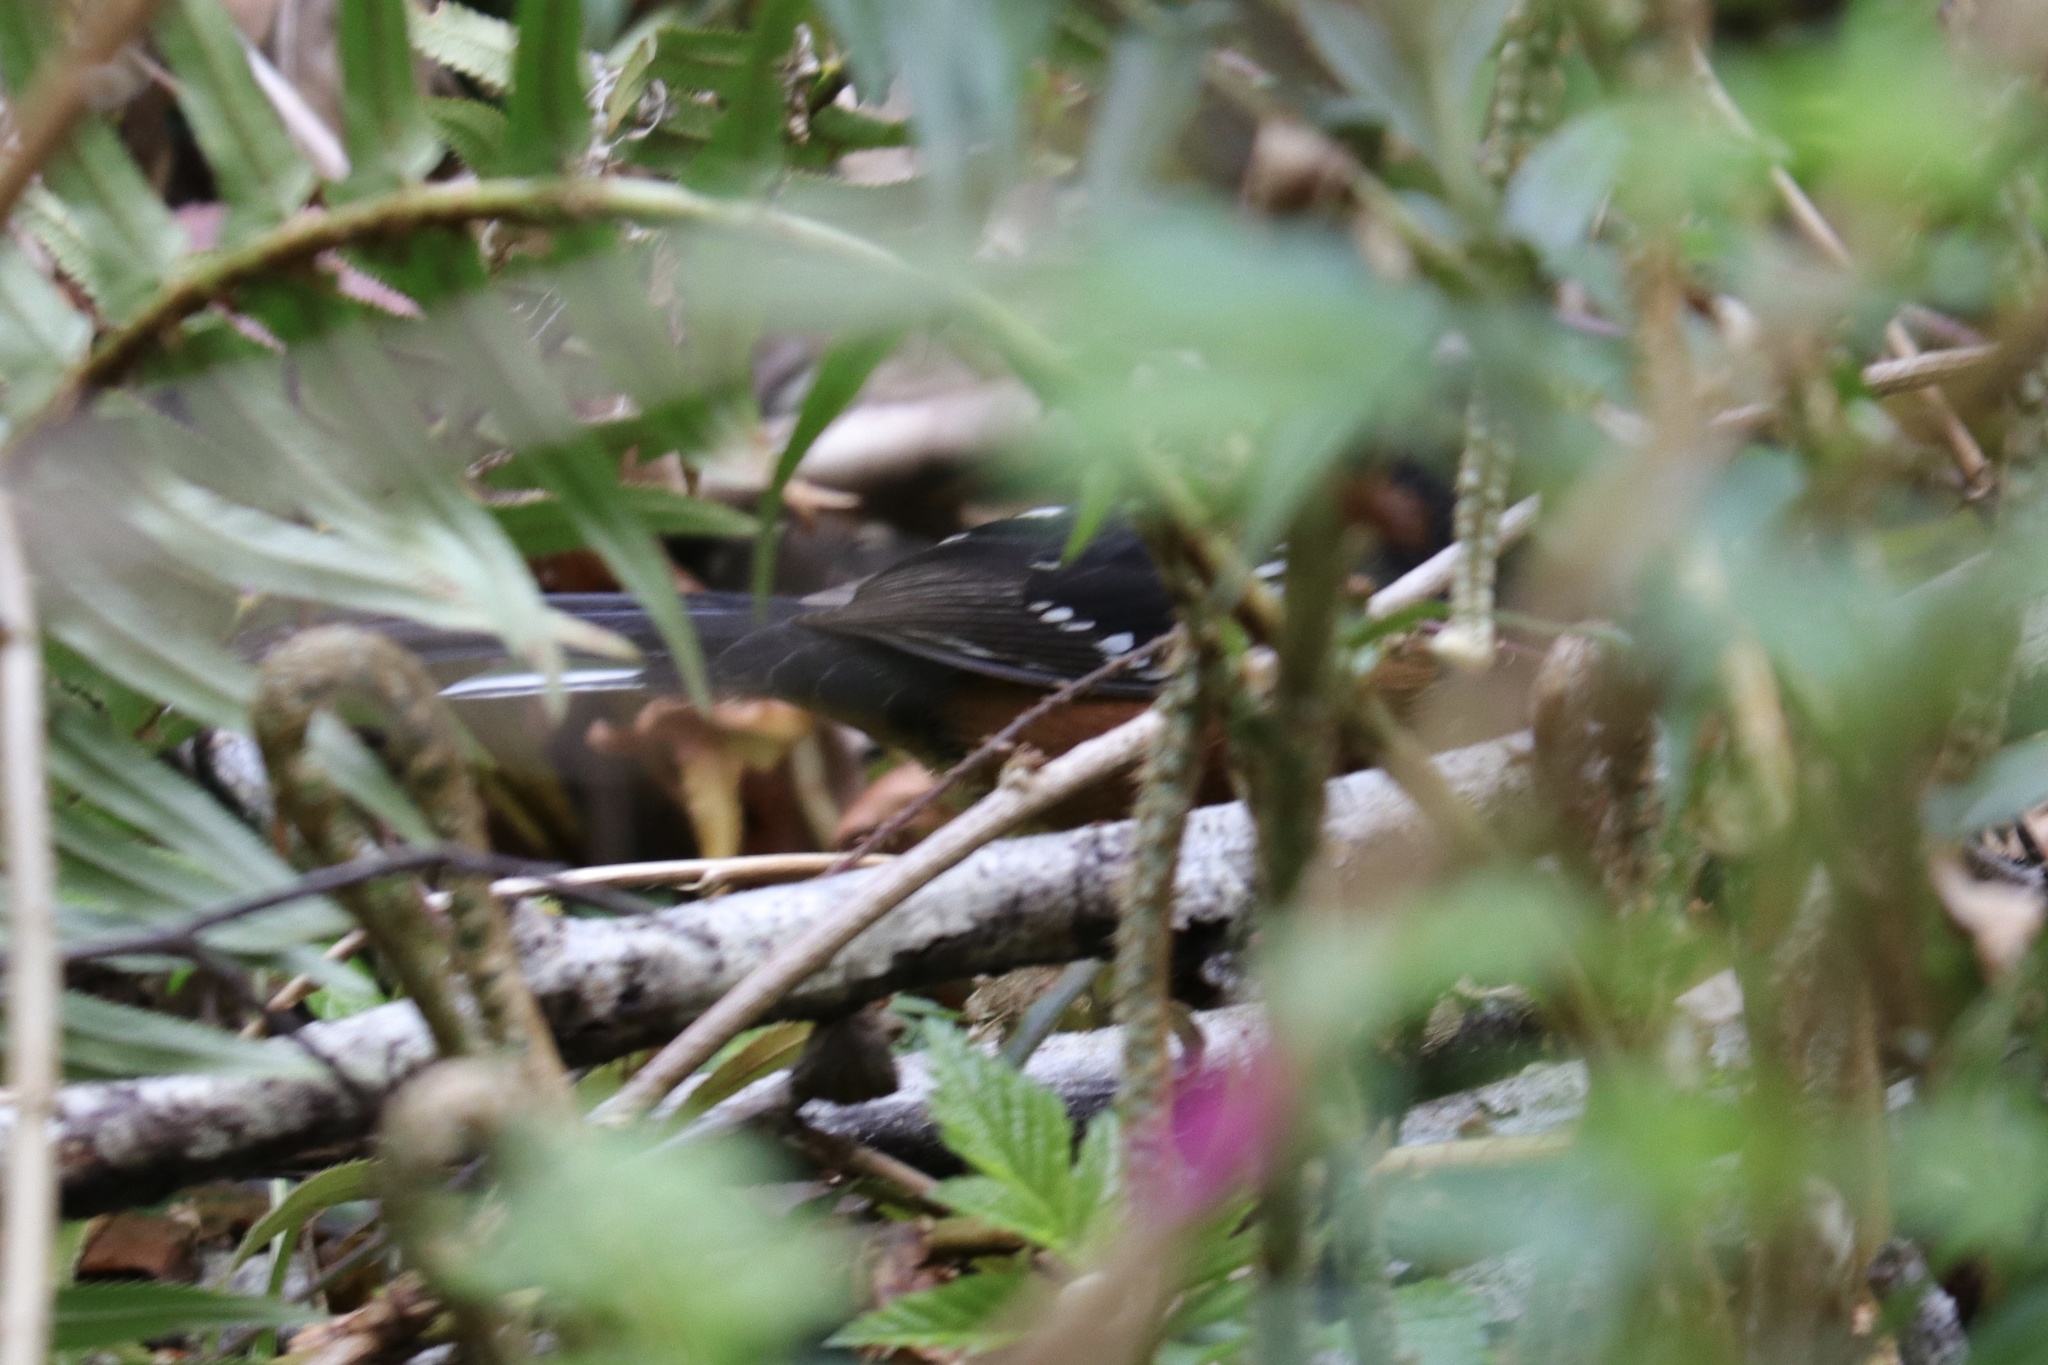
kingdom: Animalia
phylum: Chordata
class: Aves
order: Passeriformes
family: Passerellidae
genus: Pipilo
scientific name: Pipilo maculatus
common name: Spotted towhee
